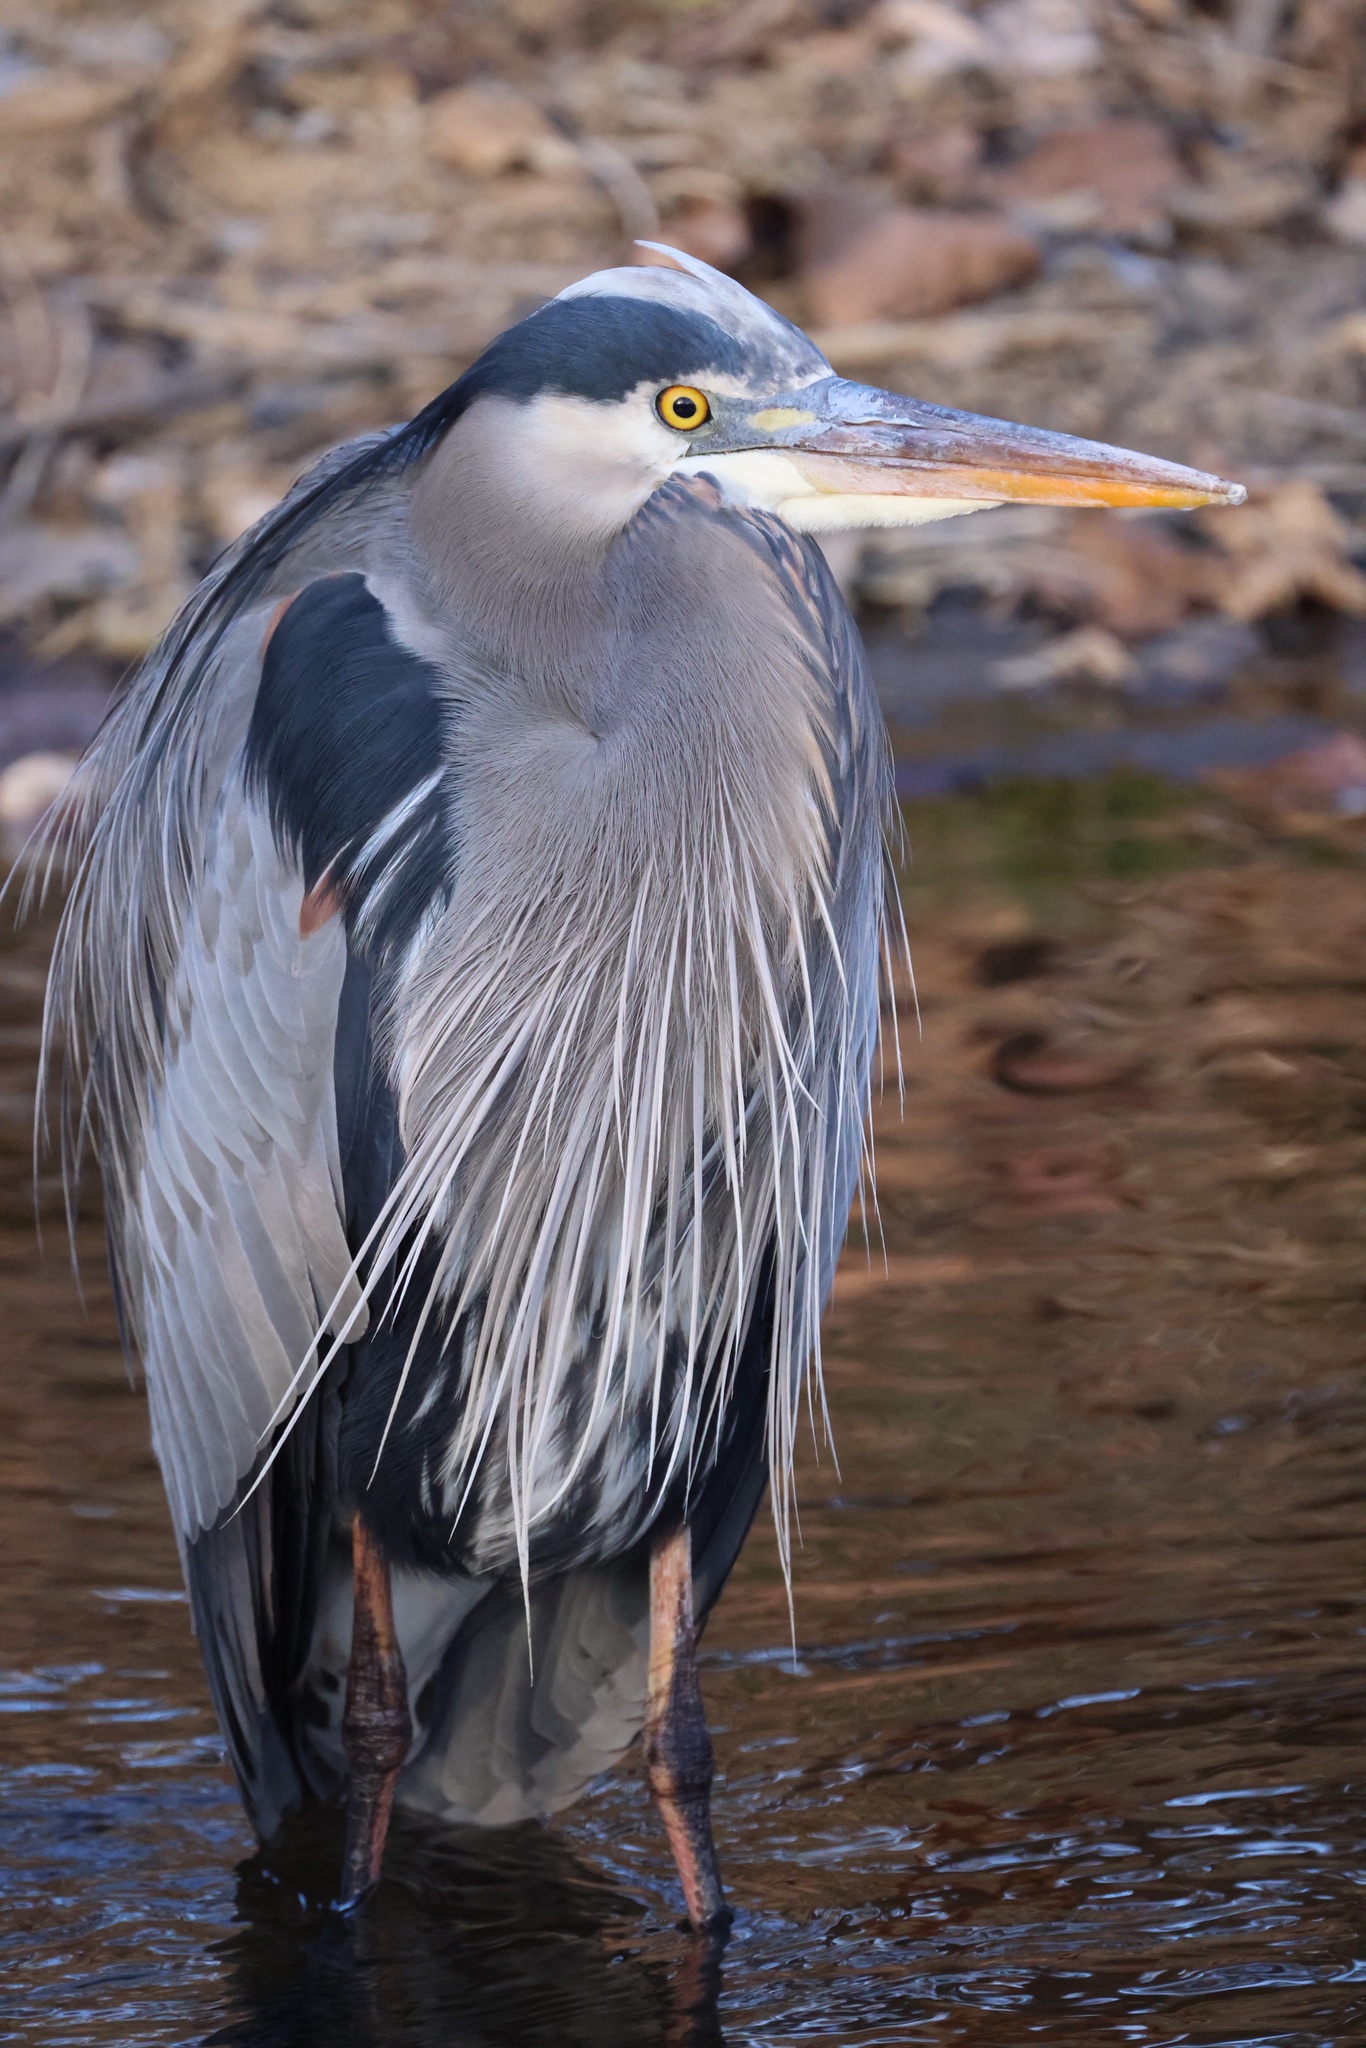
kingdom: Animalia
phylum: Chordata
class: Aves
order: Pelecaniformes
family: Ardeidae
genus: Ardea
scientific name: Ardea herodias
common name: Great blue heron
